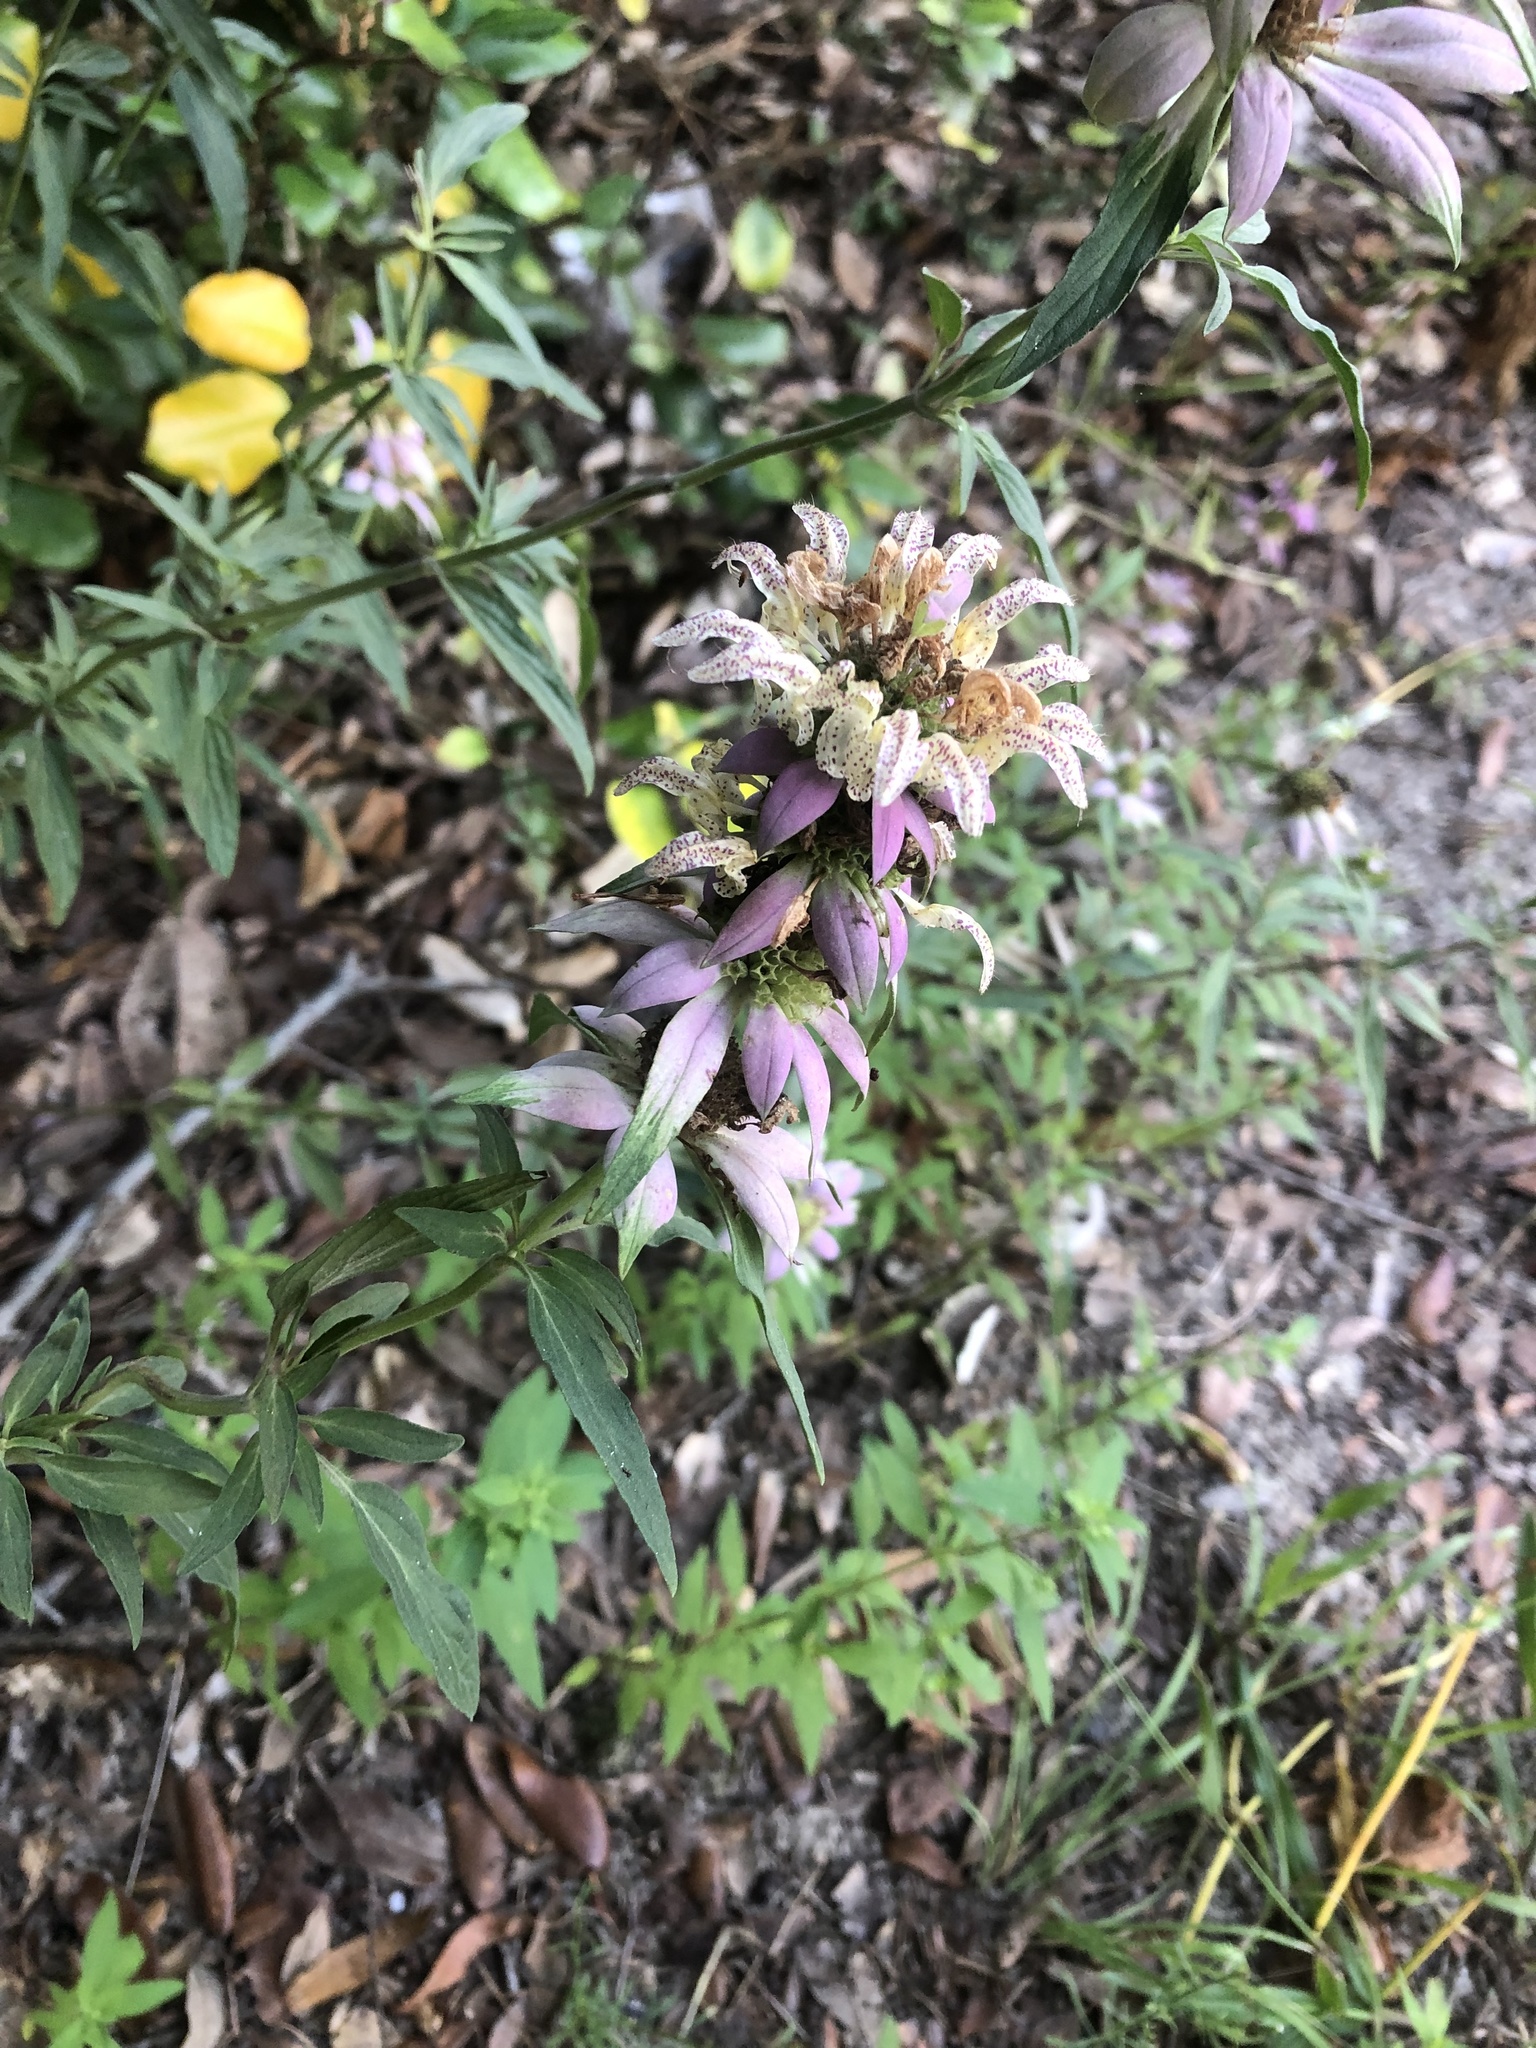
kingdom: Plantae
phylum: Tracheophyta
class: Magnoliopsida
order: Lamiales
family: Lamiaceae
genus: Monarda
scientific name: Monarda punctata
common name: Dotted monarda
